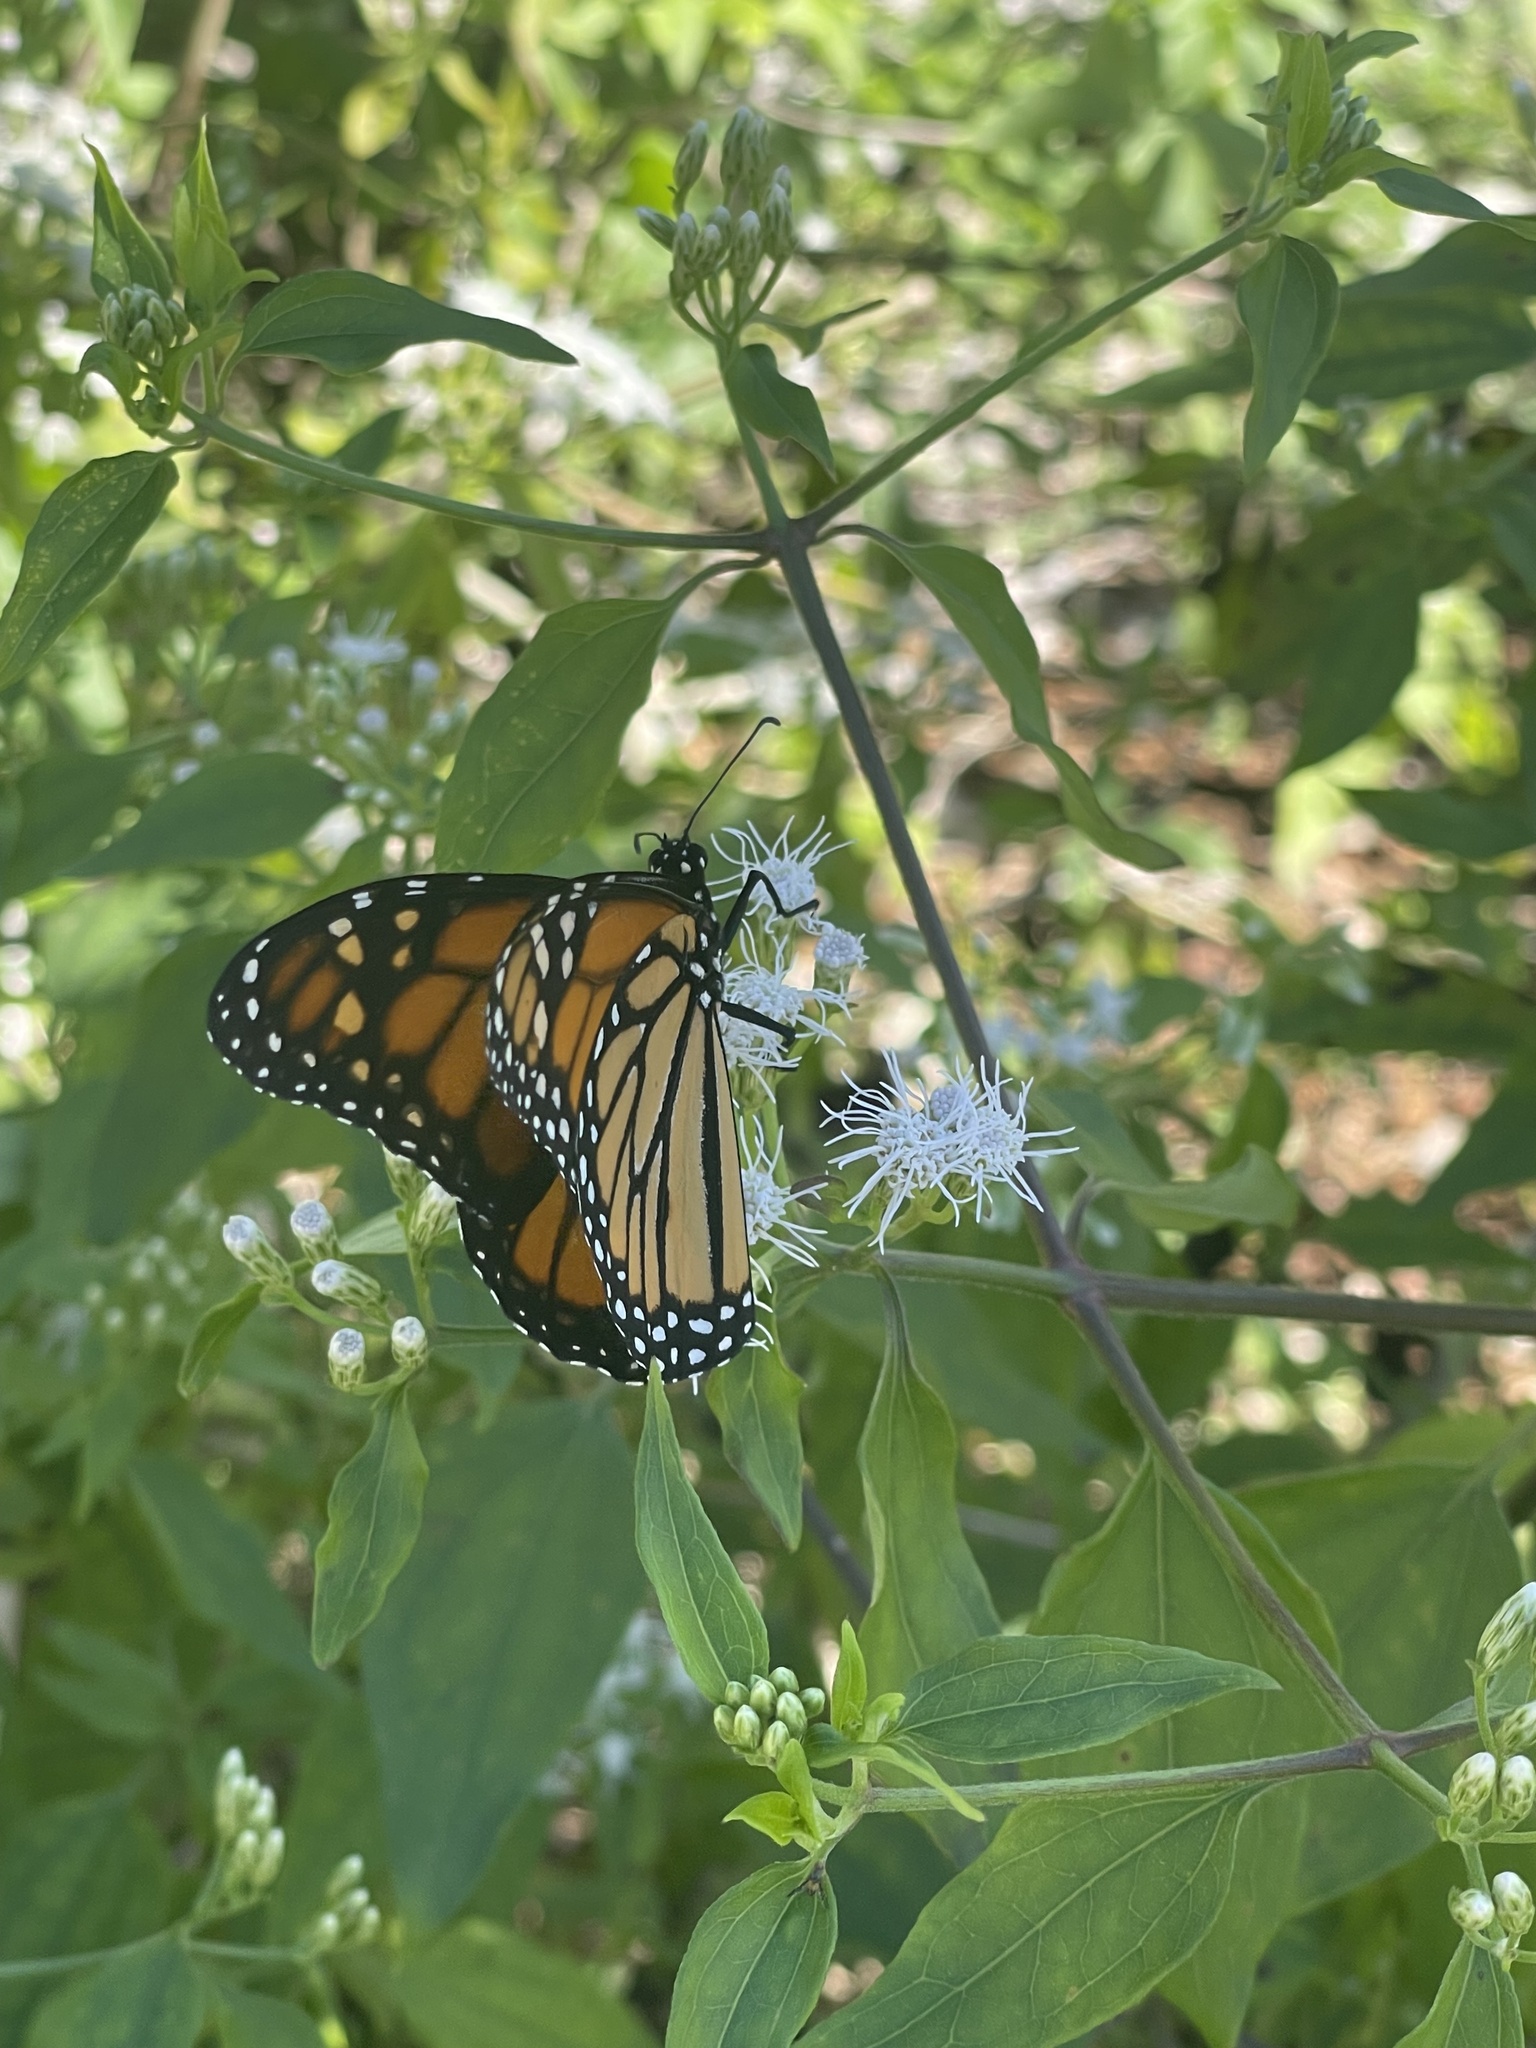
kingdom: Animalia
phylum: Arthropoda
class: Insecta
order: Lepidoptera
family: Nymphalidae
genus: Danaus
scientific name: Danaus plexippus
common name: Monarch
